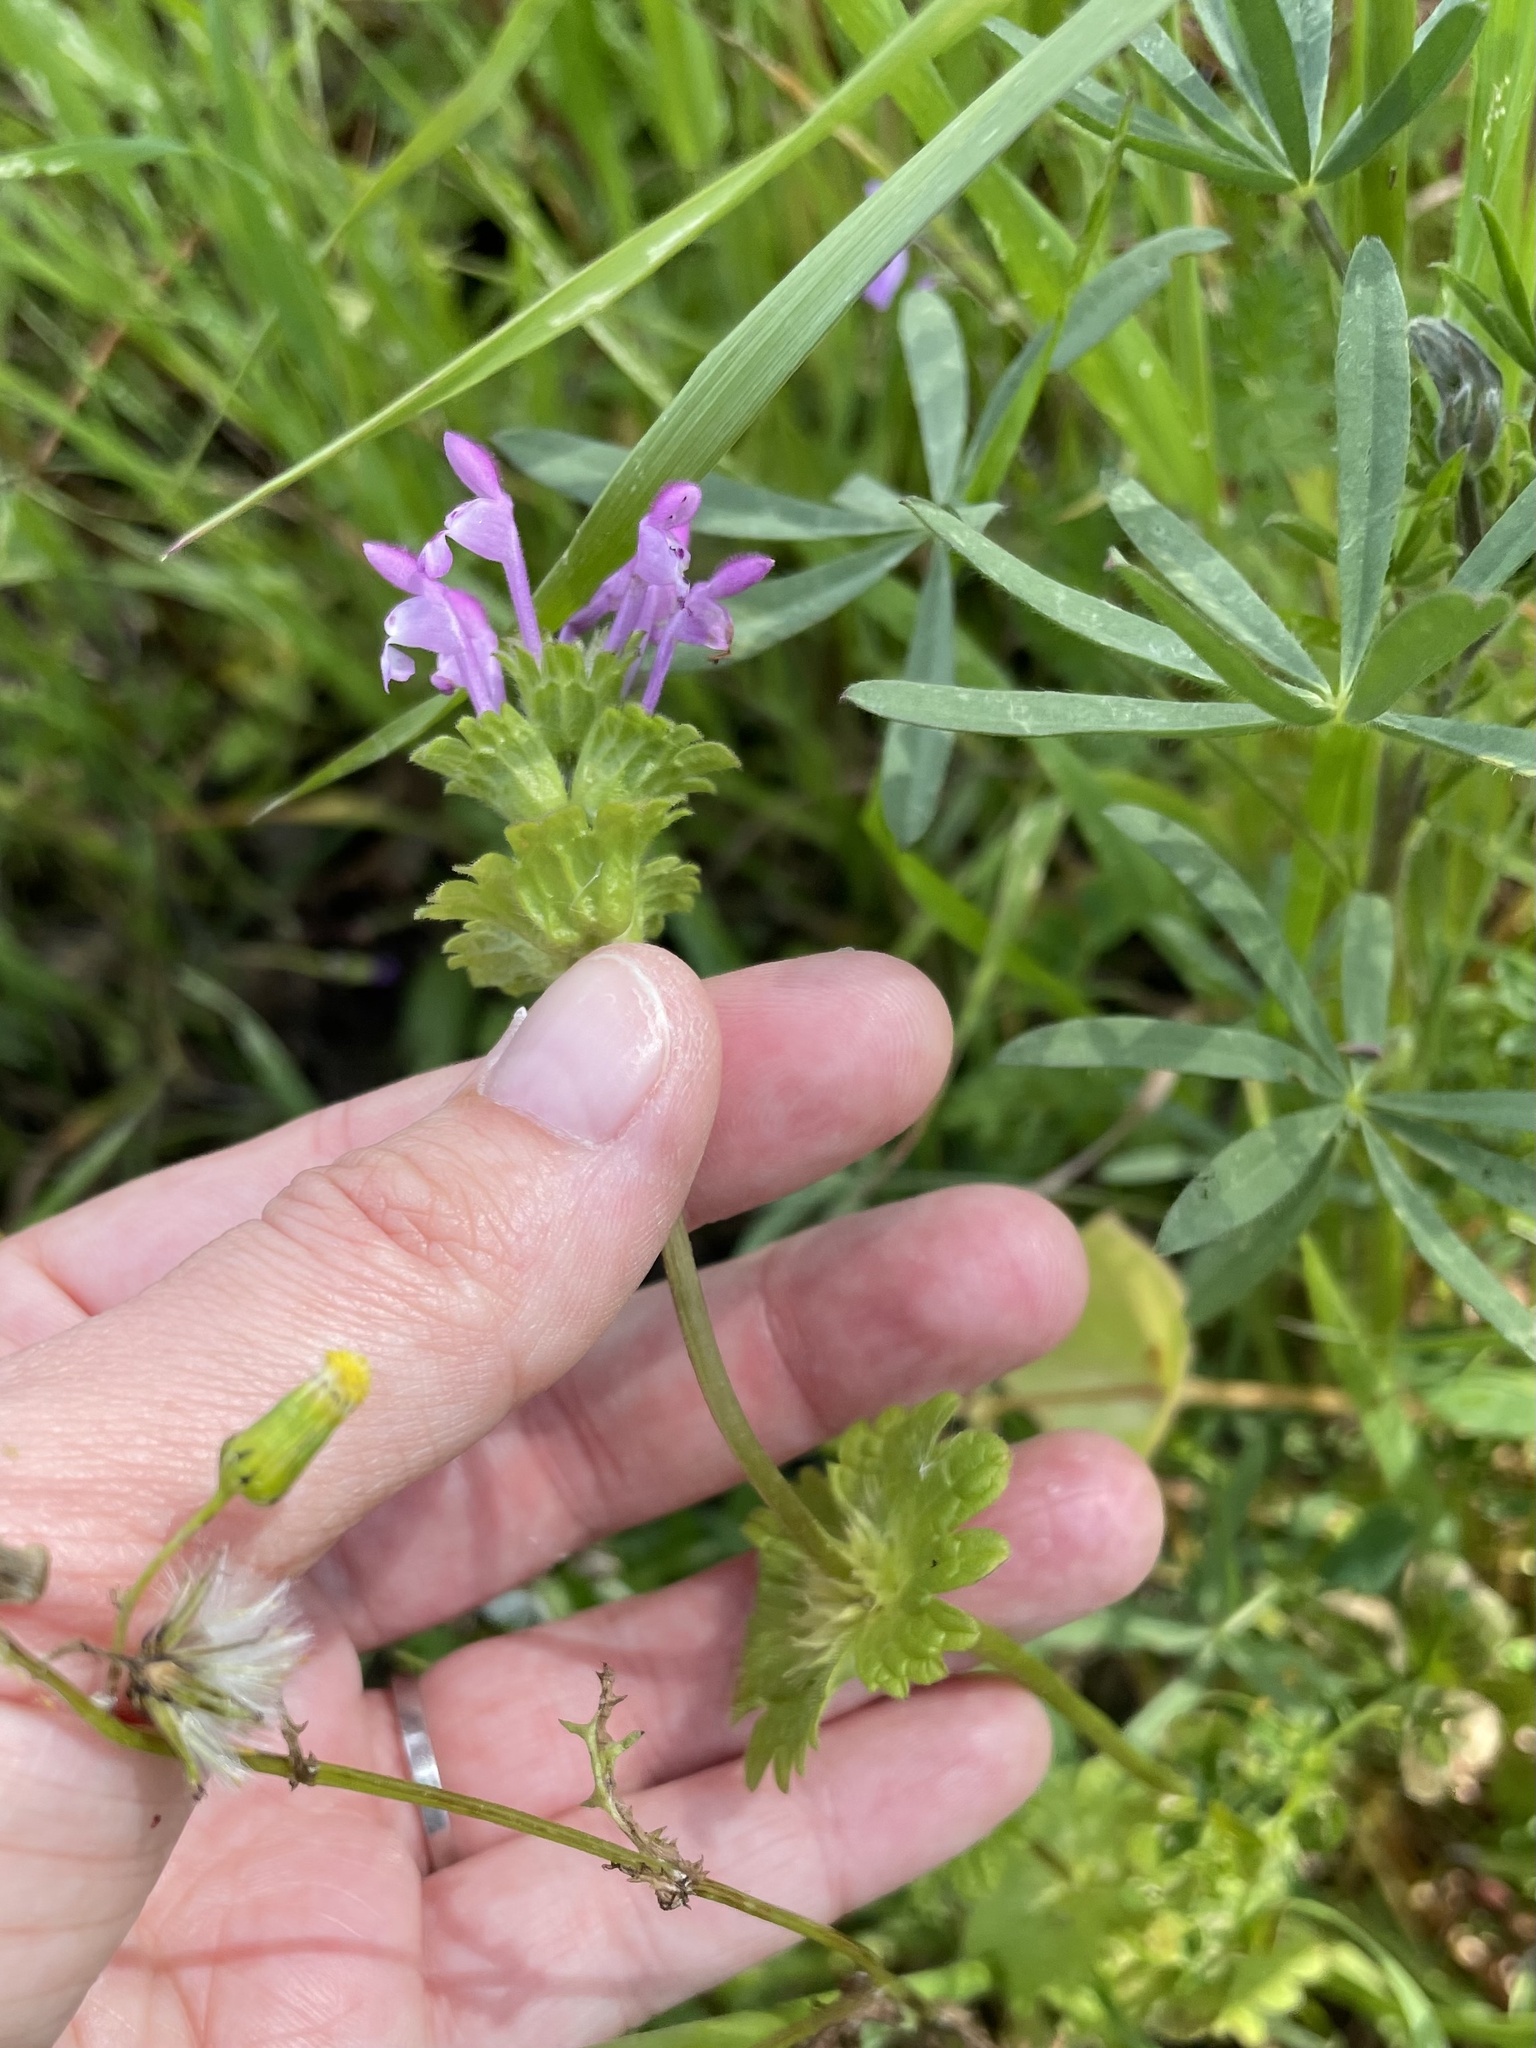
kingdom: Plantae
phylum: Tracheophyta
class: Magnoliopsida
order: Lamiales
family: Lamiaceae
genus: Lamium
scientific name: Lamium amplexicaule
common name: Henbit dead-nettle
